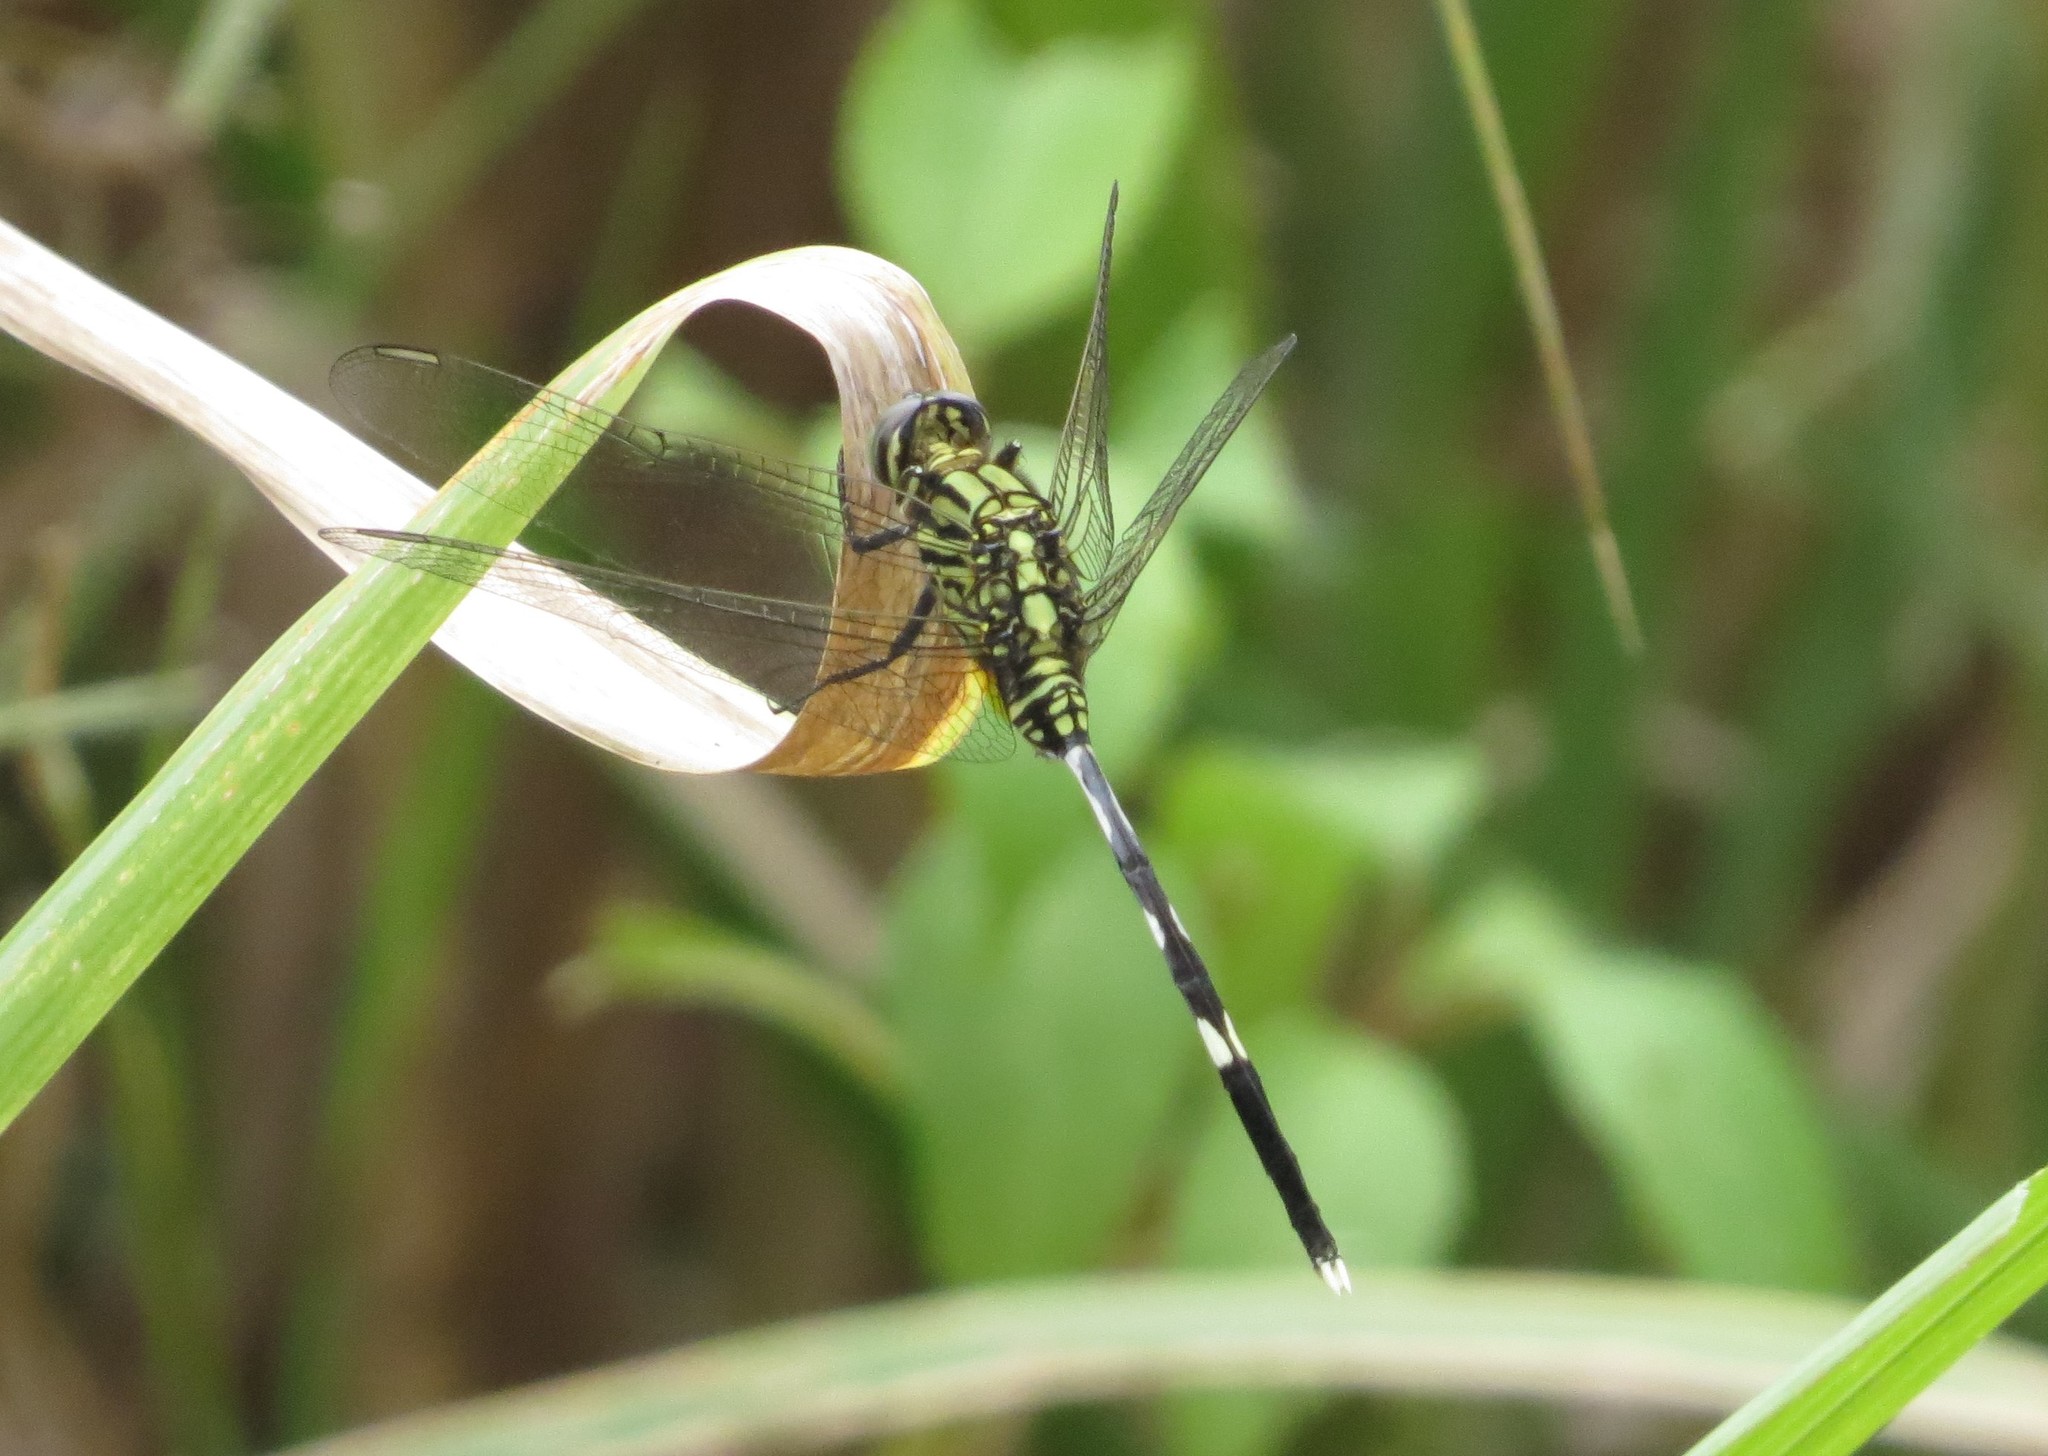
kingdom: Animalia
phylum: Arthropoda
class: Insecta
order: Odonata
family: Libellulidae
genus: Orthetrum
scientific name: Orthetrum sabina
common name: Slender skimmer
